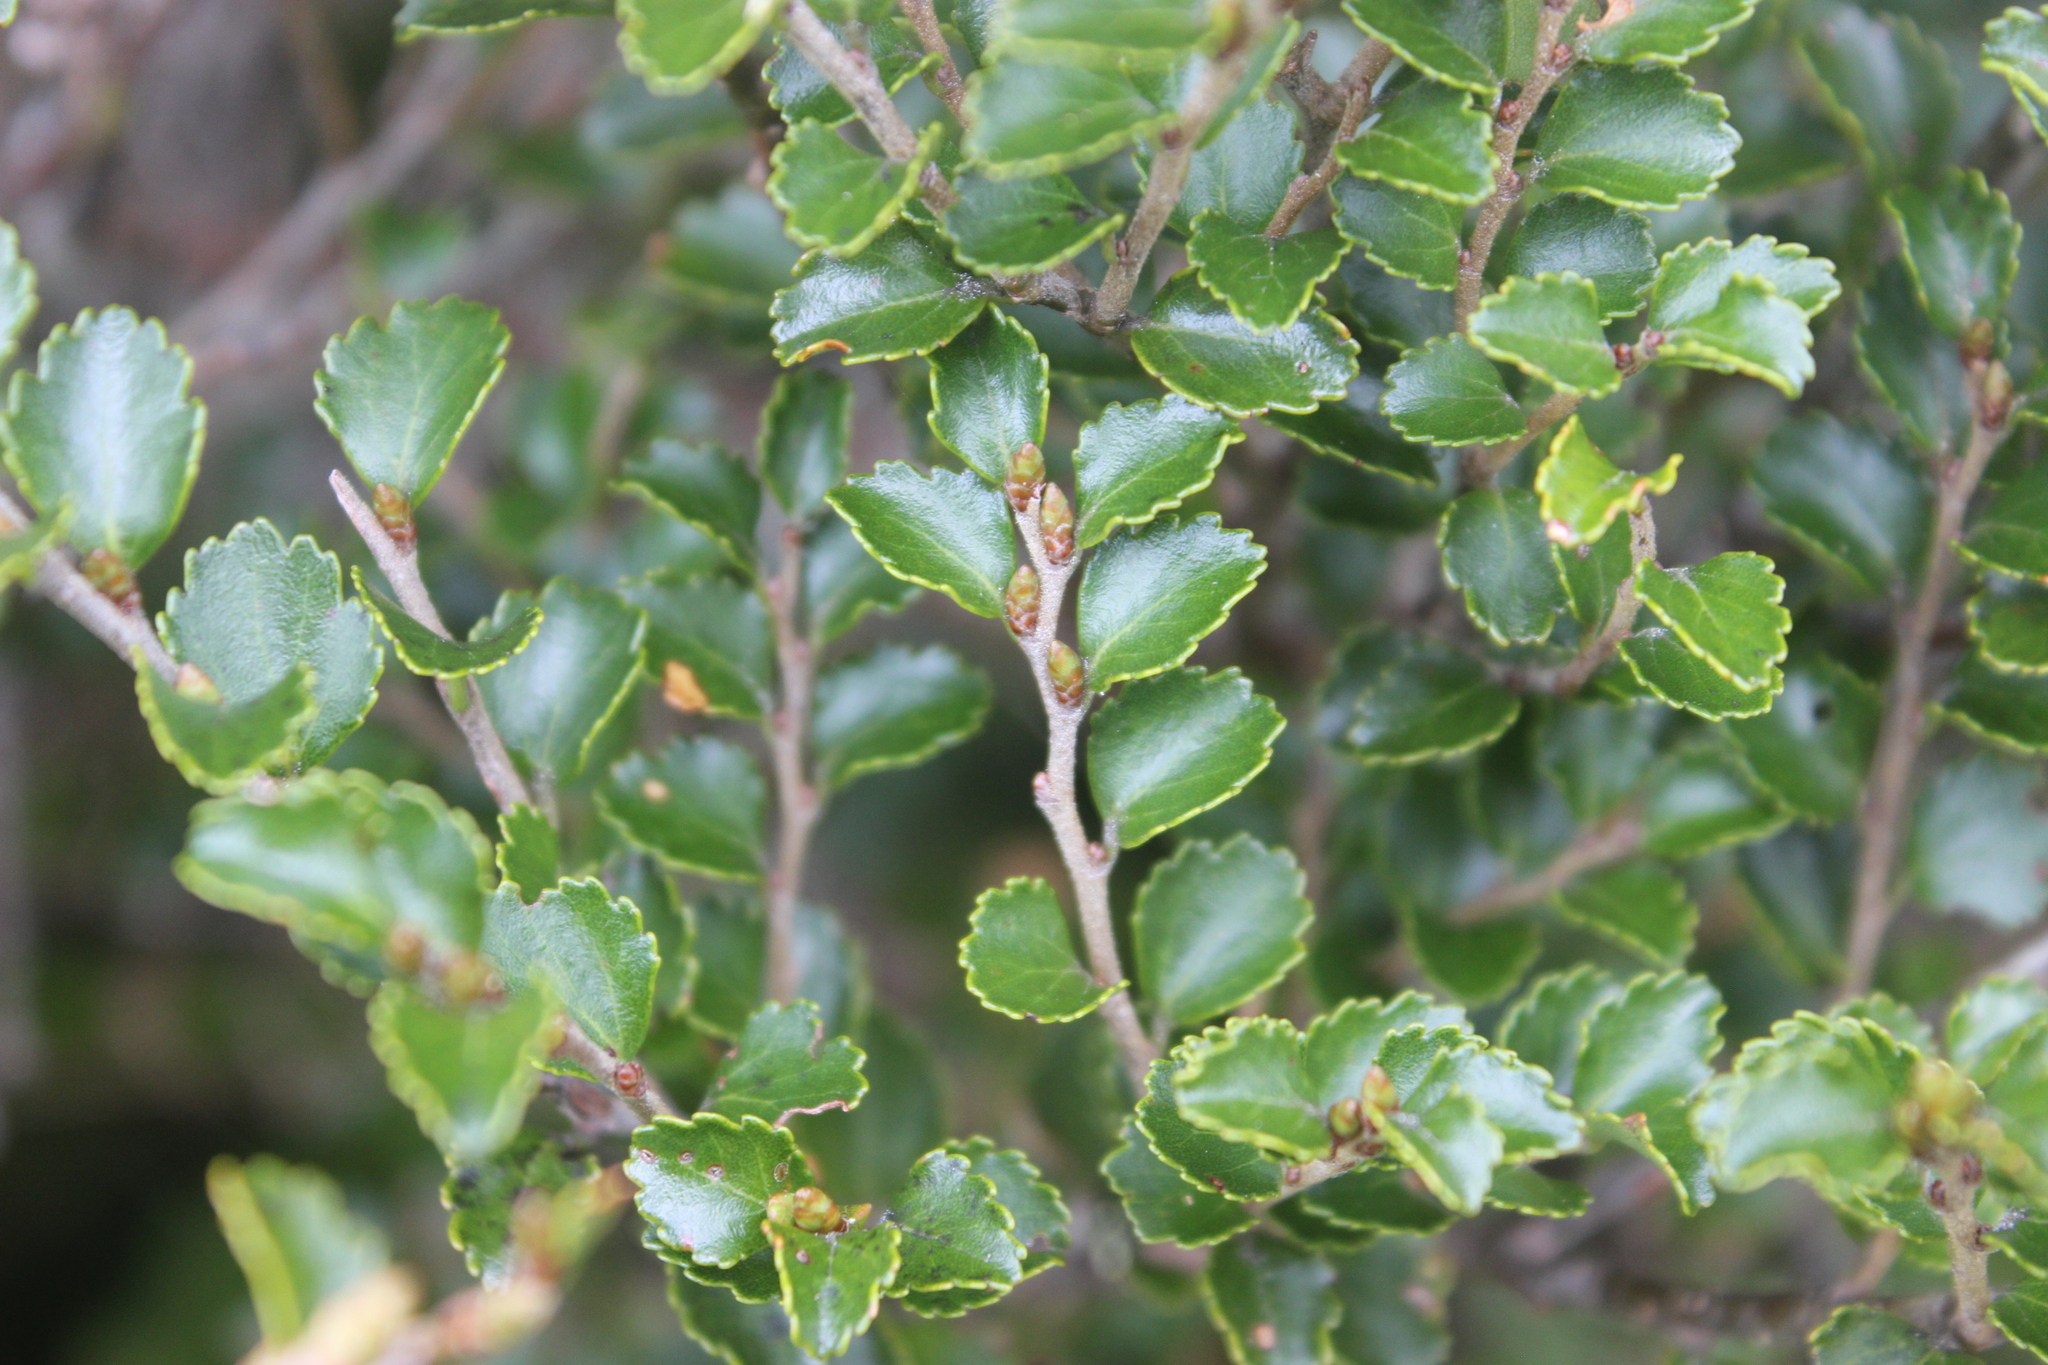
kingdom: Plantae
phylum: Tracheophyta
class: Magnoliopsida
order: Fagales
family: Nothofagaceae
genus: Nothofagus
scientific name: Nothofagus menziesii
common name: Silver beech
